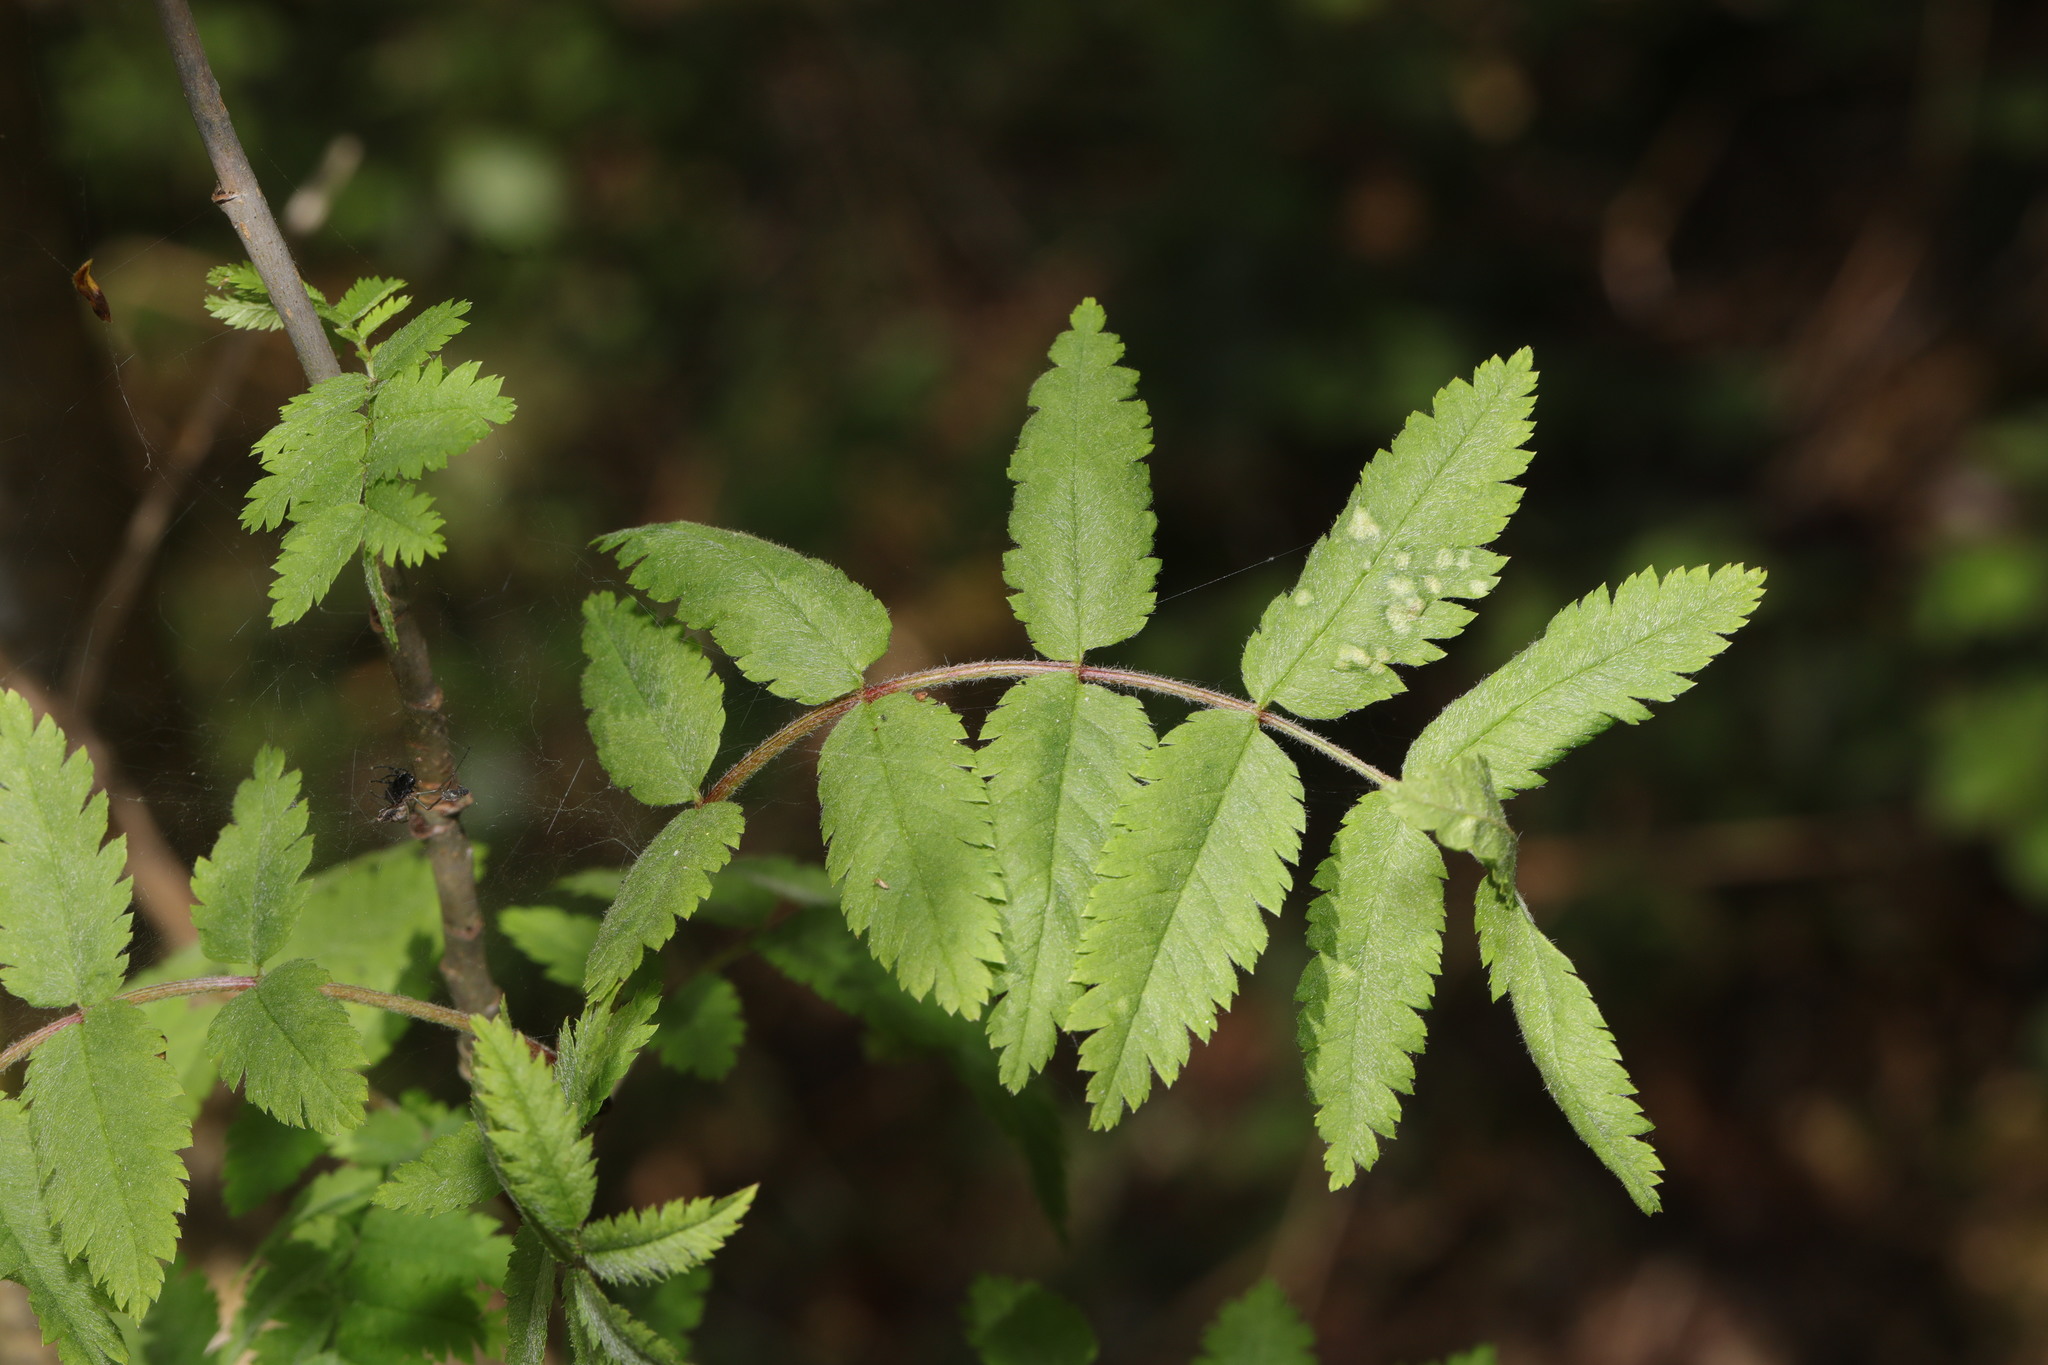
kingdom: Plantae
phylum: Tracheophyta
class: Magnoliopsida
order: Rosales
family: Rosaceae
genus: Sorbus
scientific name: Sorbus aucuparia
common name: Rowan
